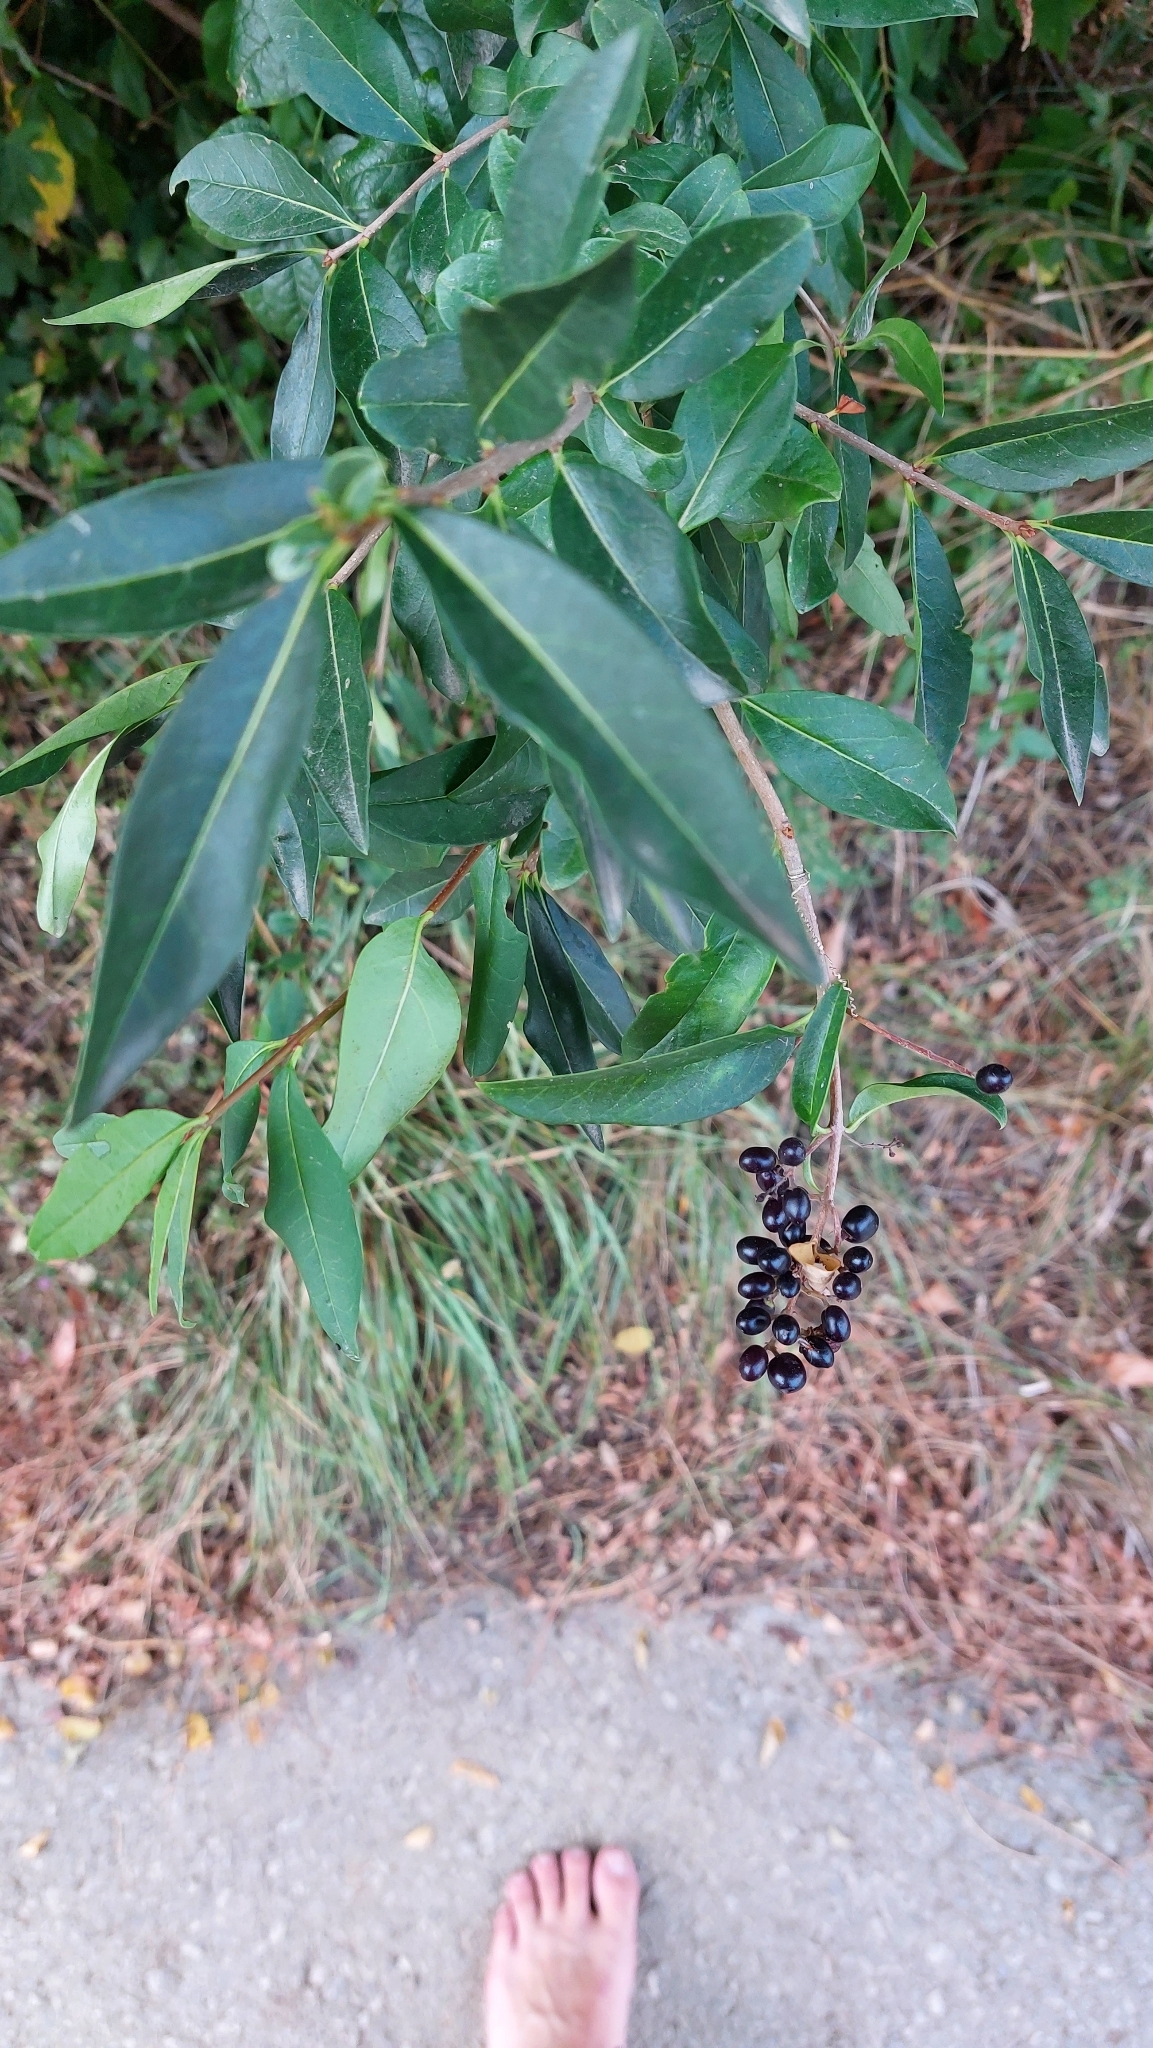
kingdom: Plantae
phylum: Tracheophyta
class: Magnoliopsida
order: Lamiales
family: Oleaceae
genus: Ligustrum
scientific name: Ligustrum vulgare
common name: Wild privet
